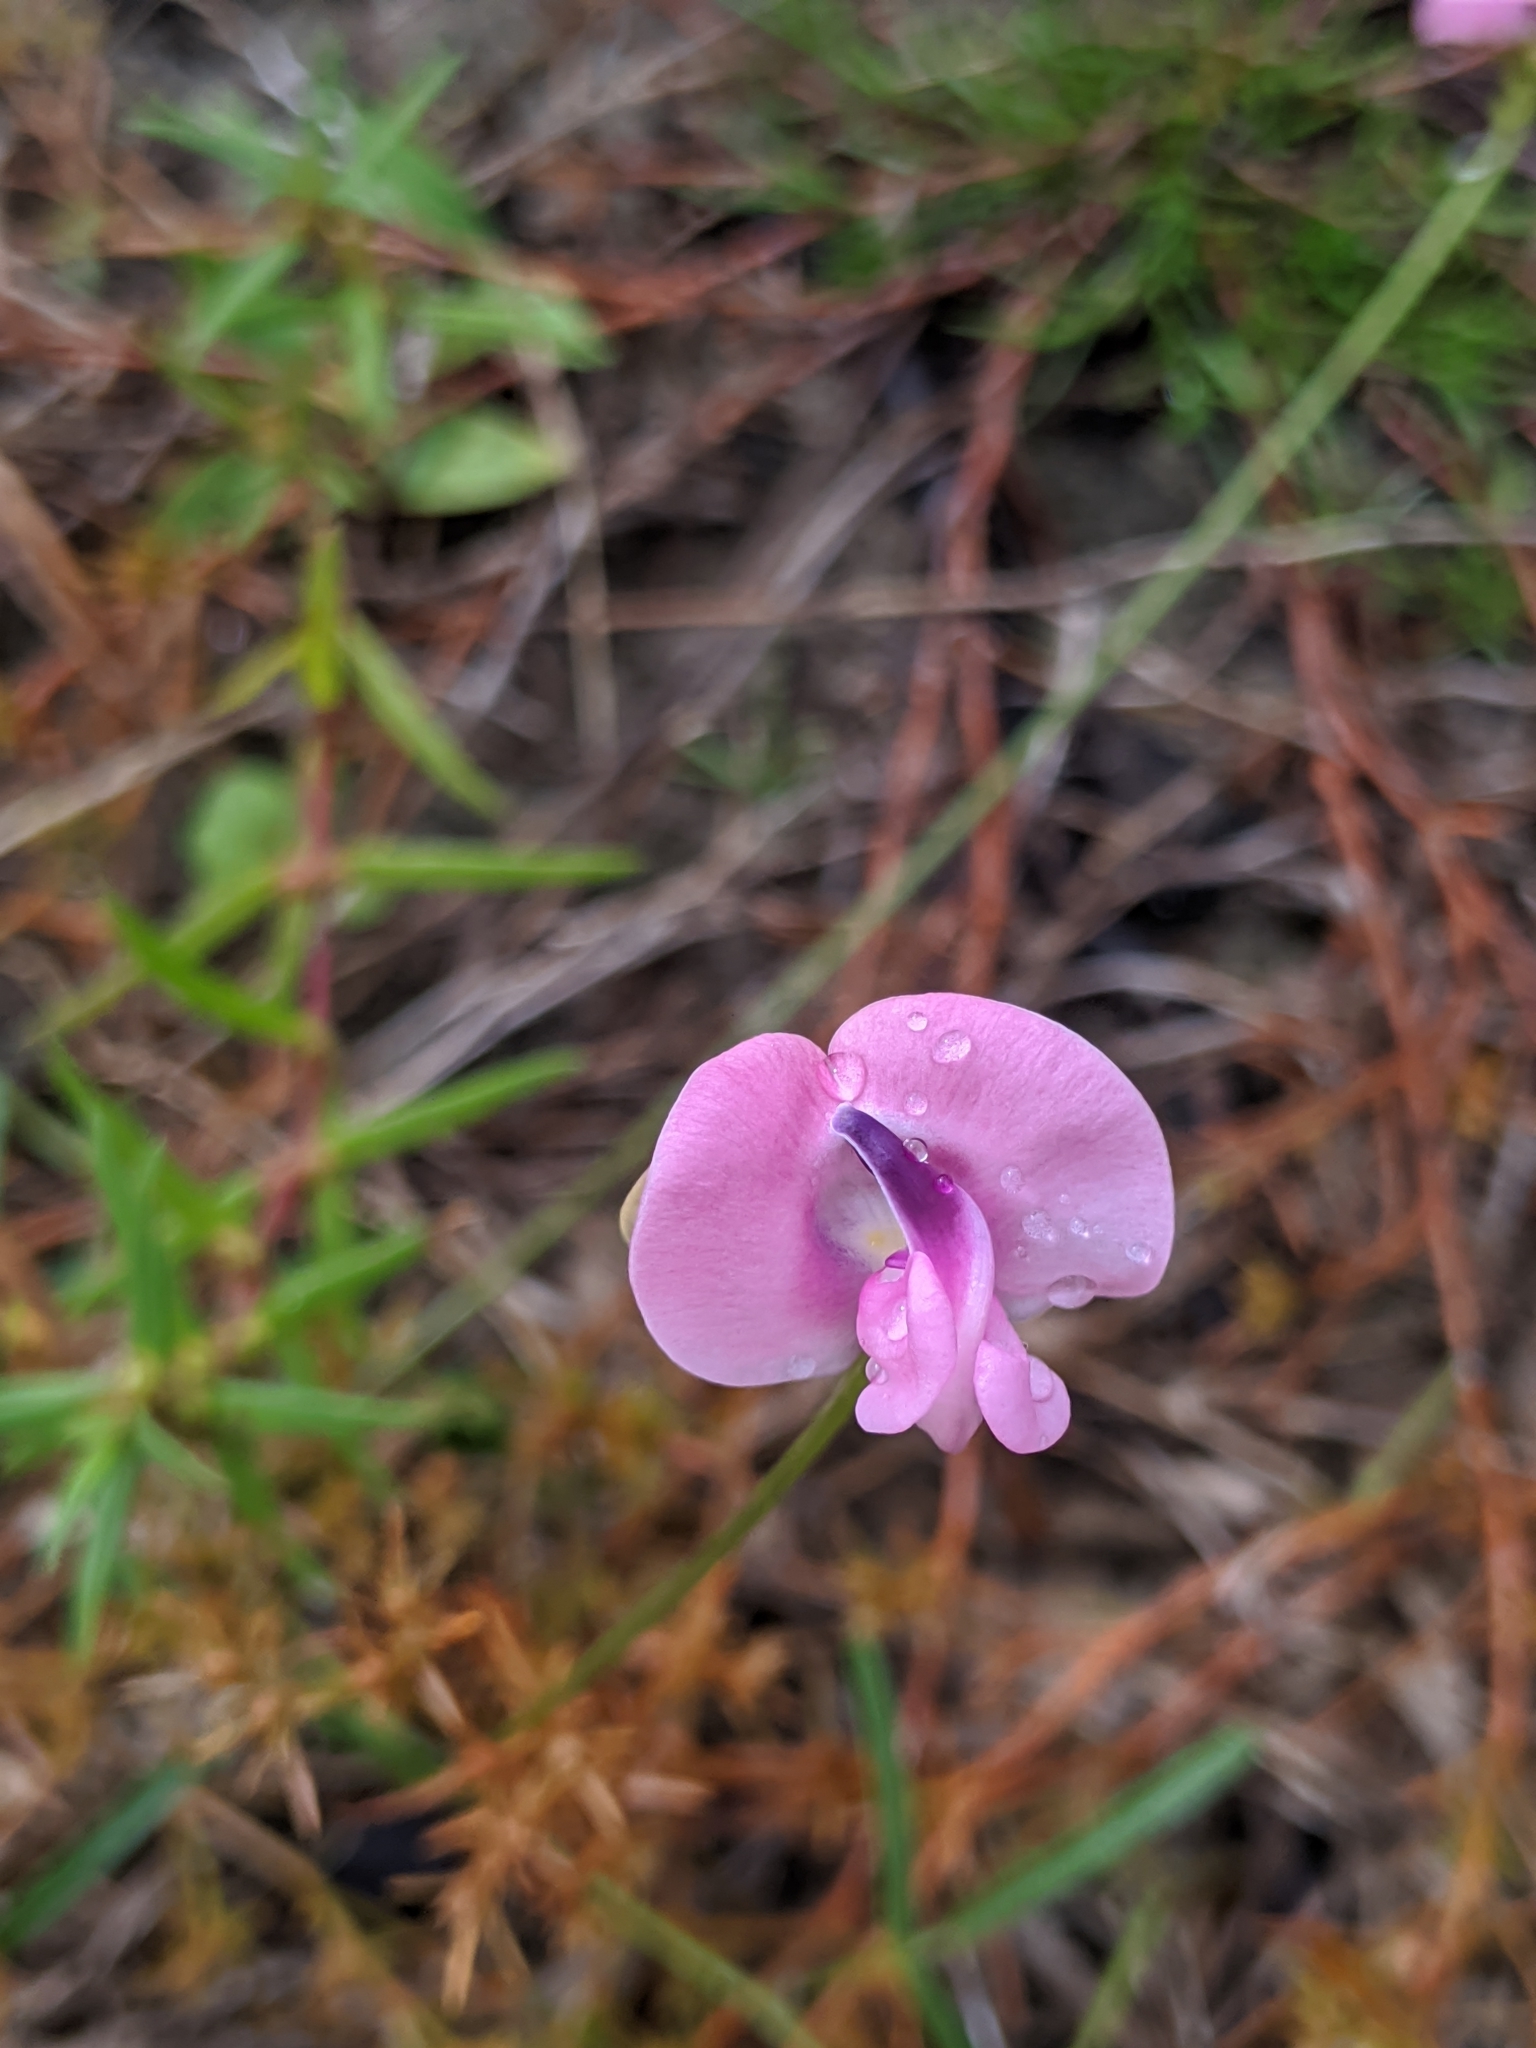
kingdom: Plantae
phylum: Tracheophyta
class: Magnoliopsida
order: Fabales
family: Fabaceae
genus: Strophostyles
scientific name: Strophostyles umbellata
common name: Perennial wild bean
